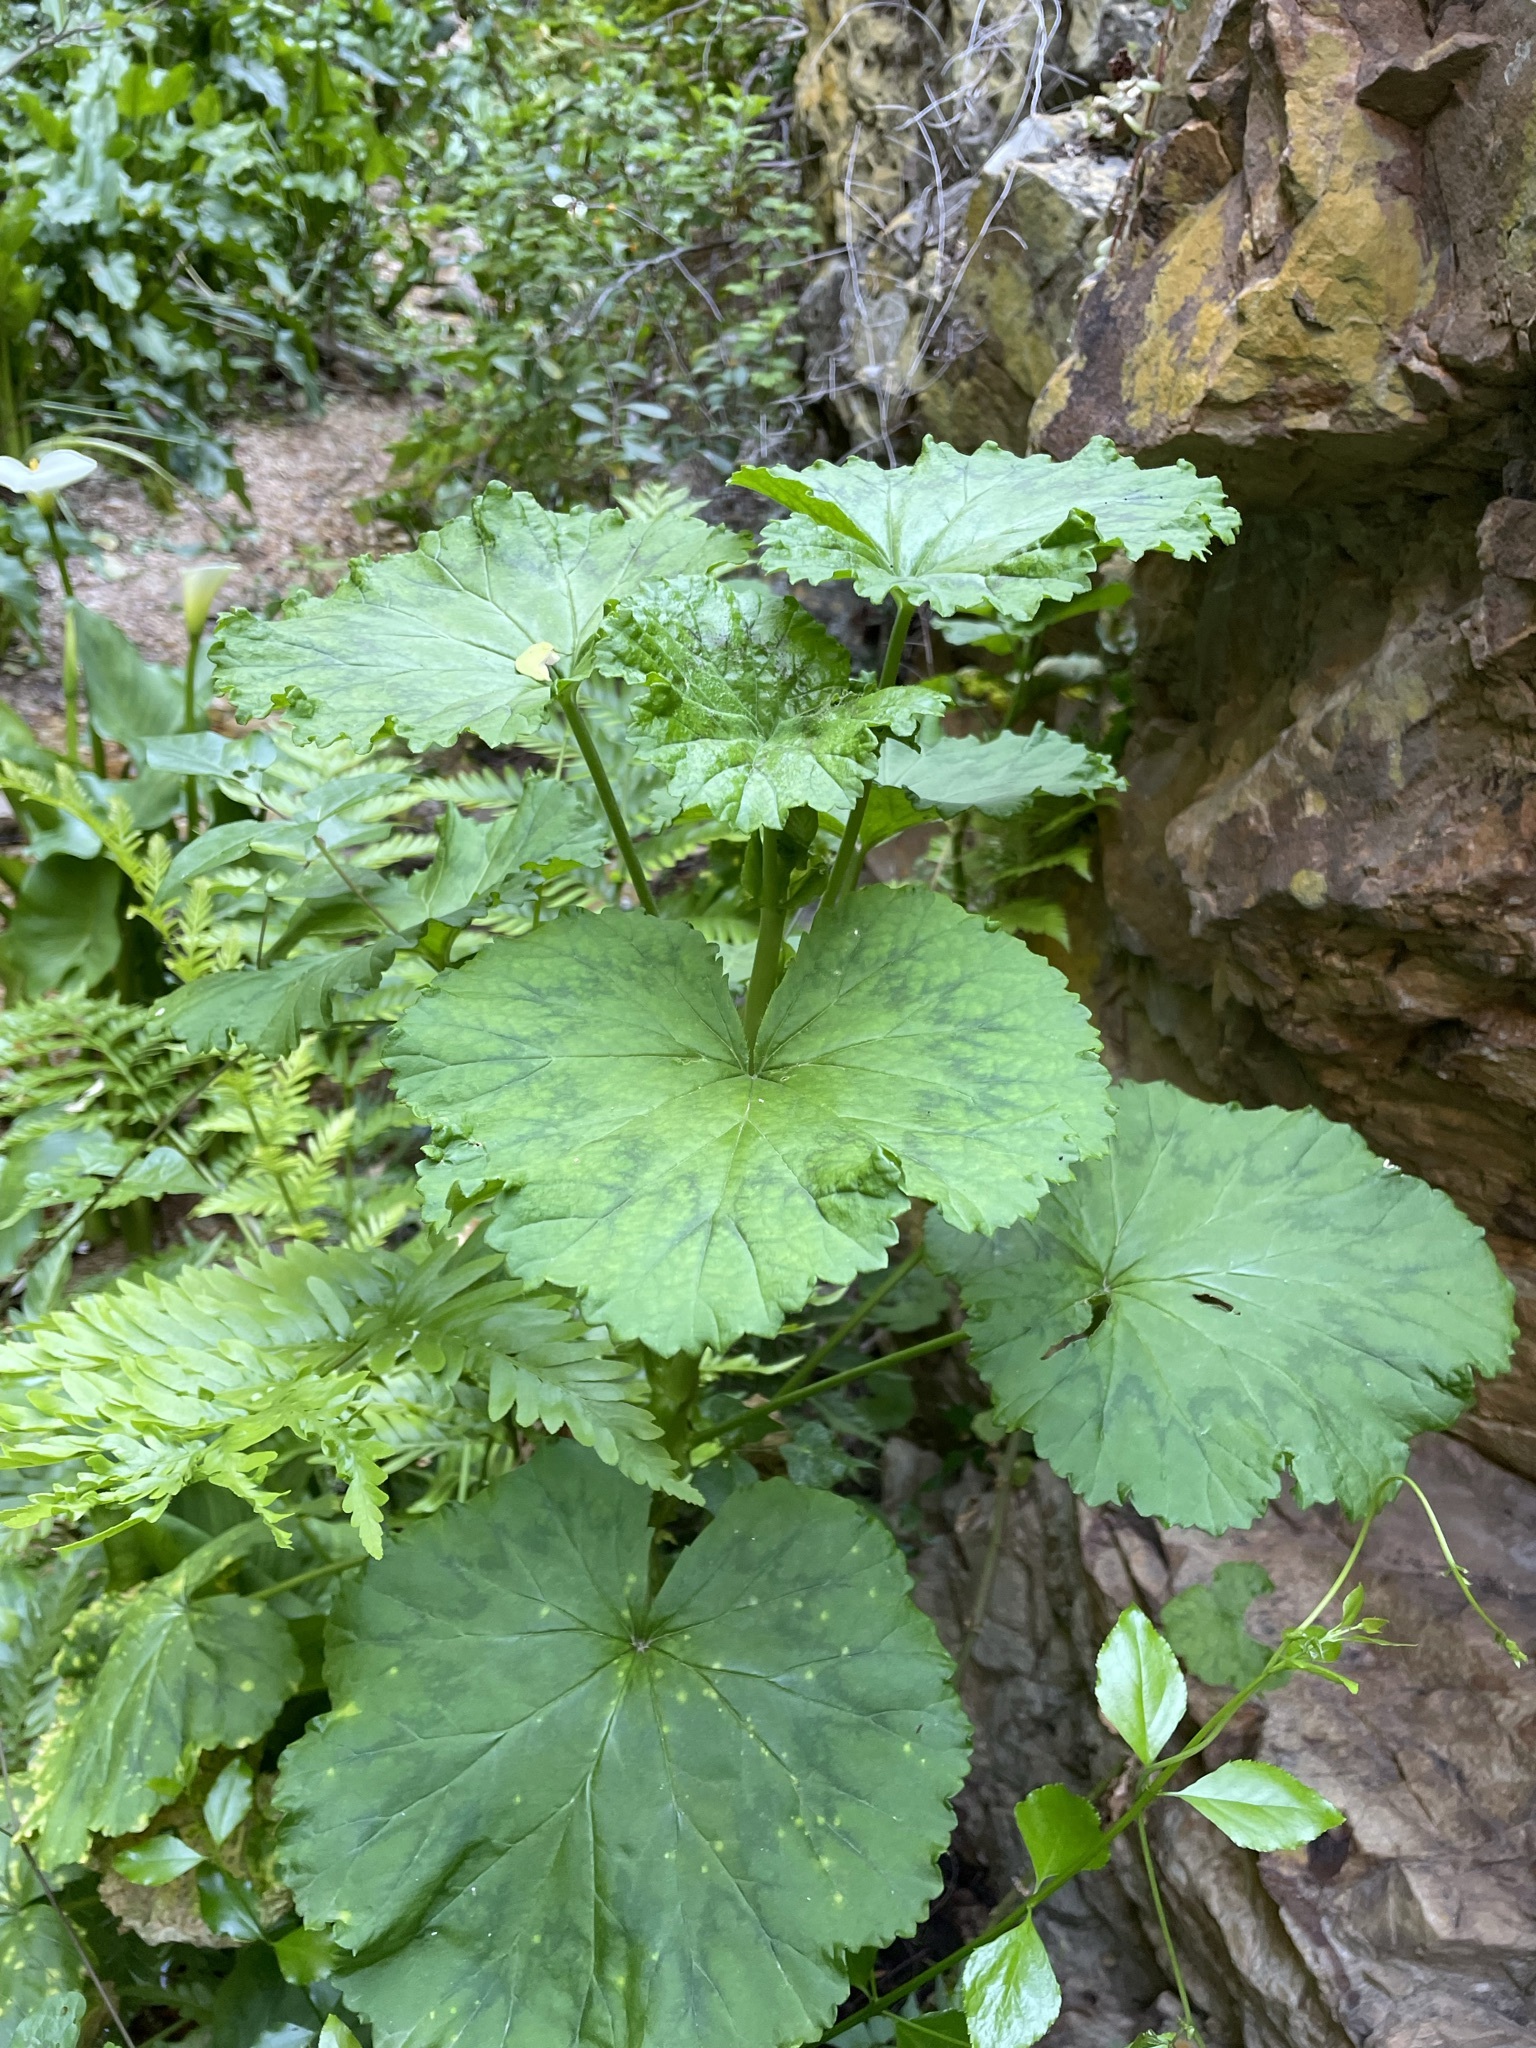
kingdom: Plantae
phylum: Tracheophyta
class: Magnoliopsida
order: Geraniales
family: Geraniaceae
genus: Pelargonium
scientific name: Pelargonium zonale
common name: Horseshoe geranium
